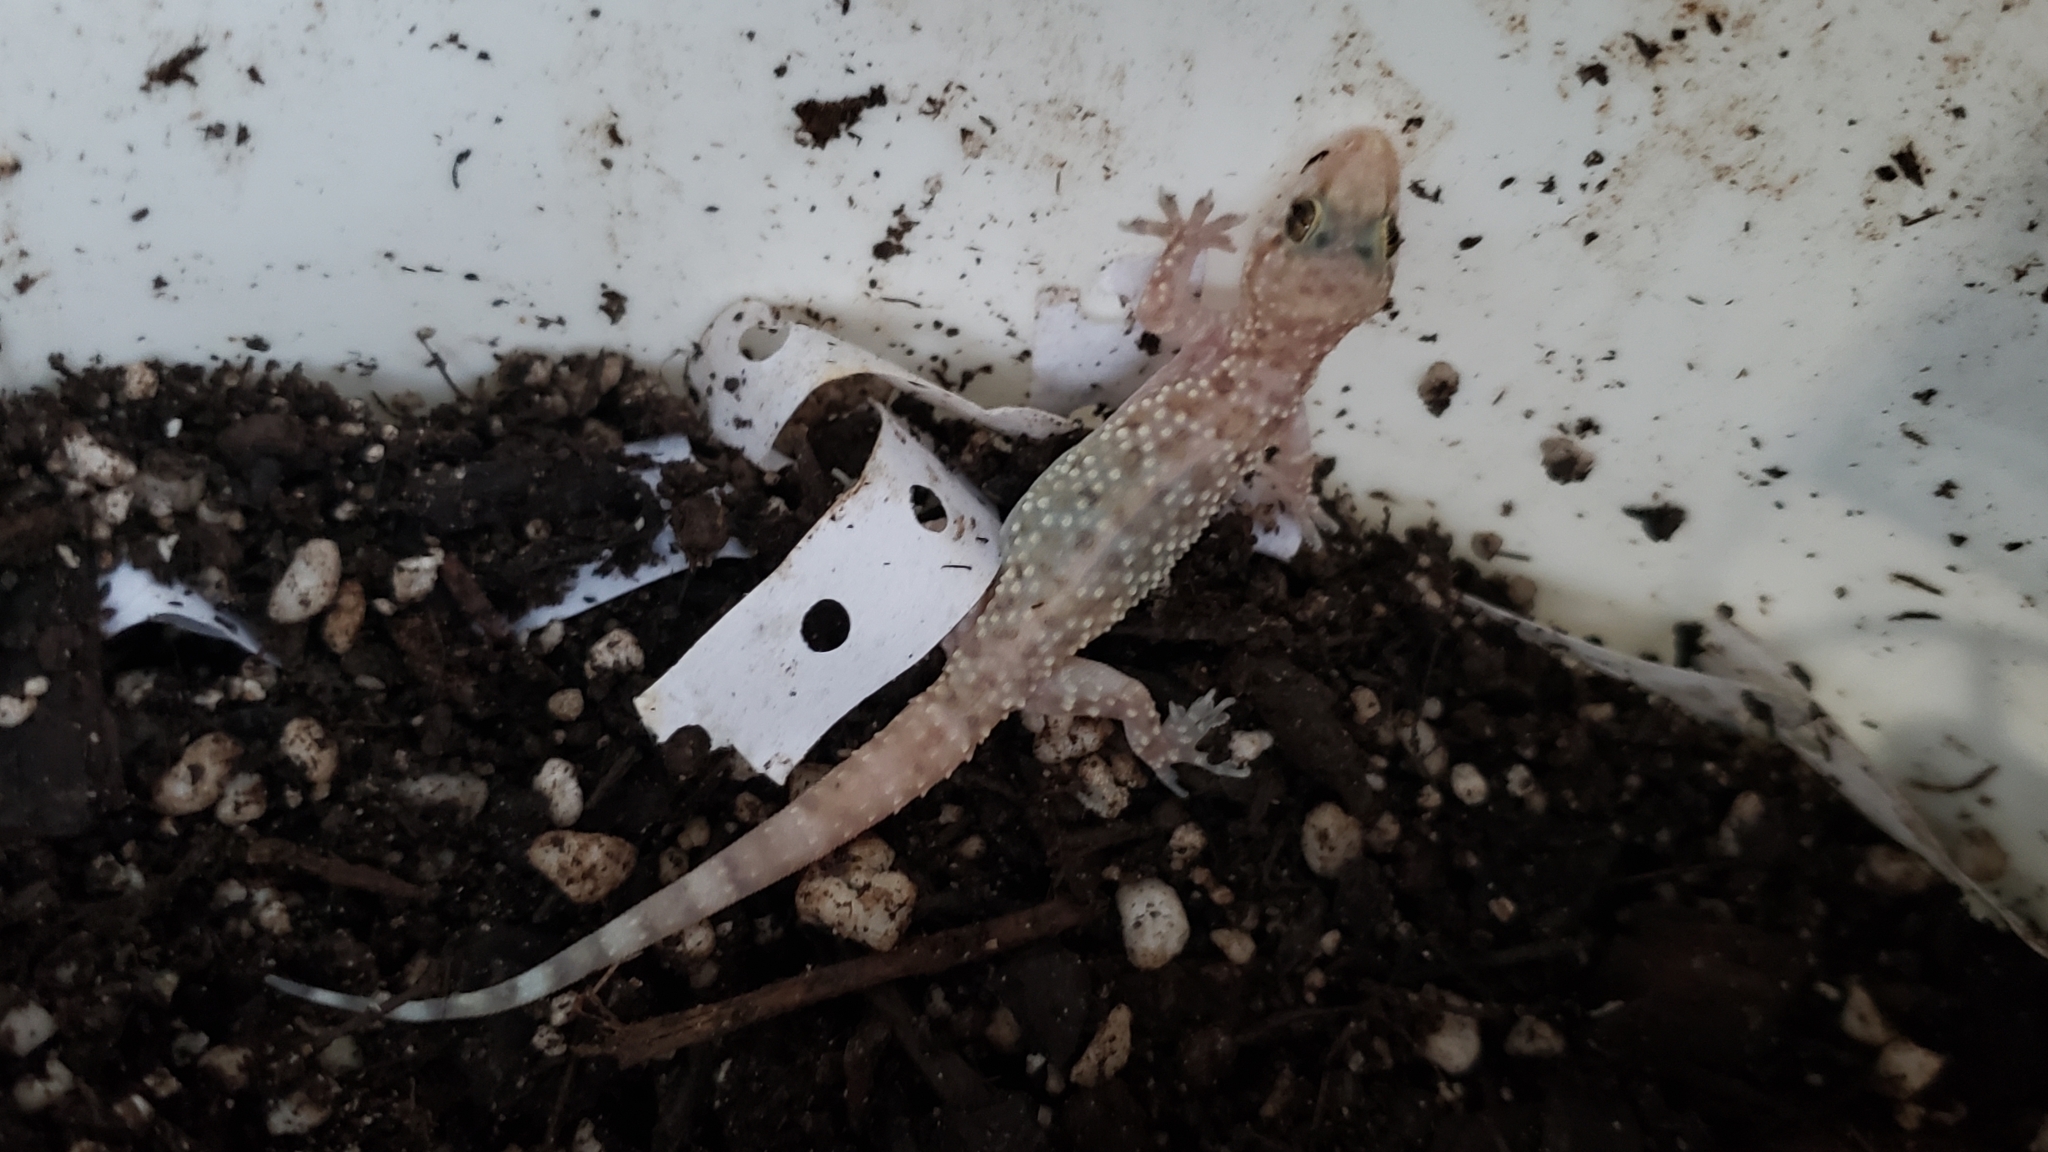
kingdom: Animalia
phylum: Chordata
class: Squamata
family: Gekkonidae
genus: Hemidactylus
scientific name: Hemidactylus turcicus
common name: Turkish gecko
